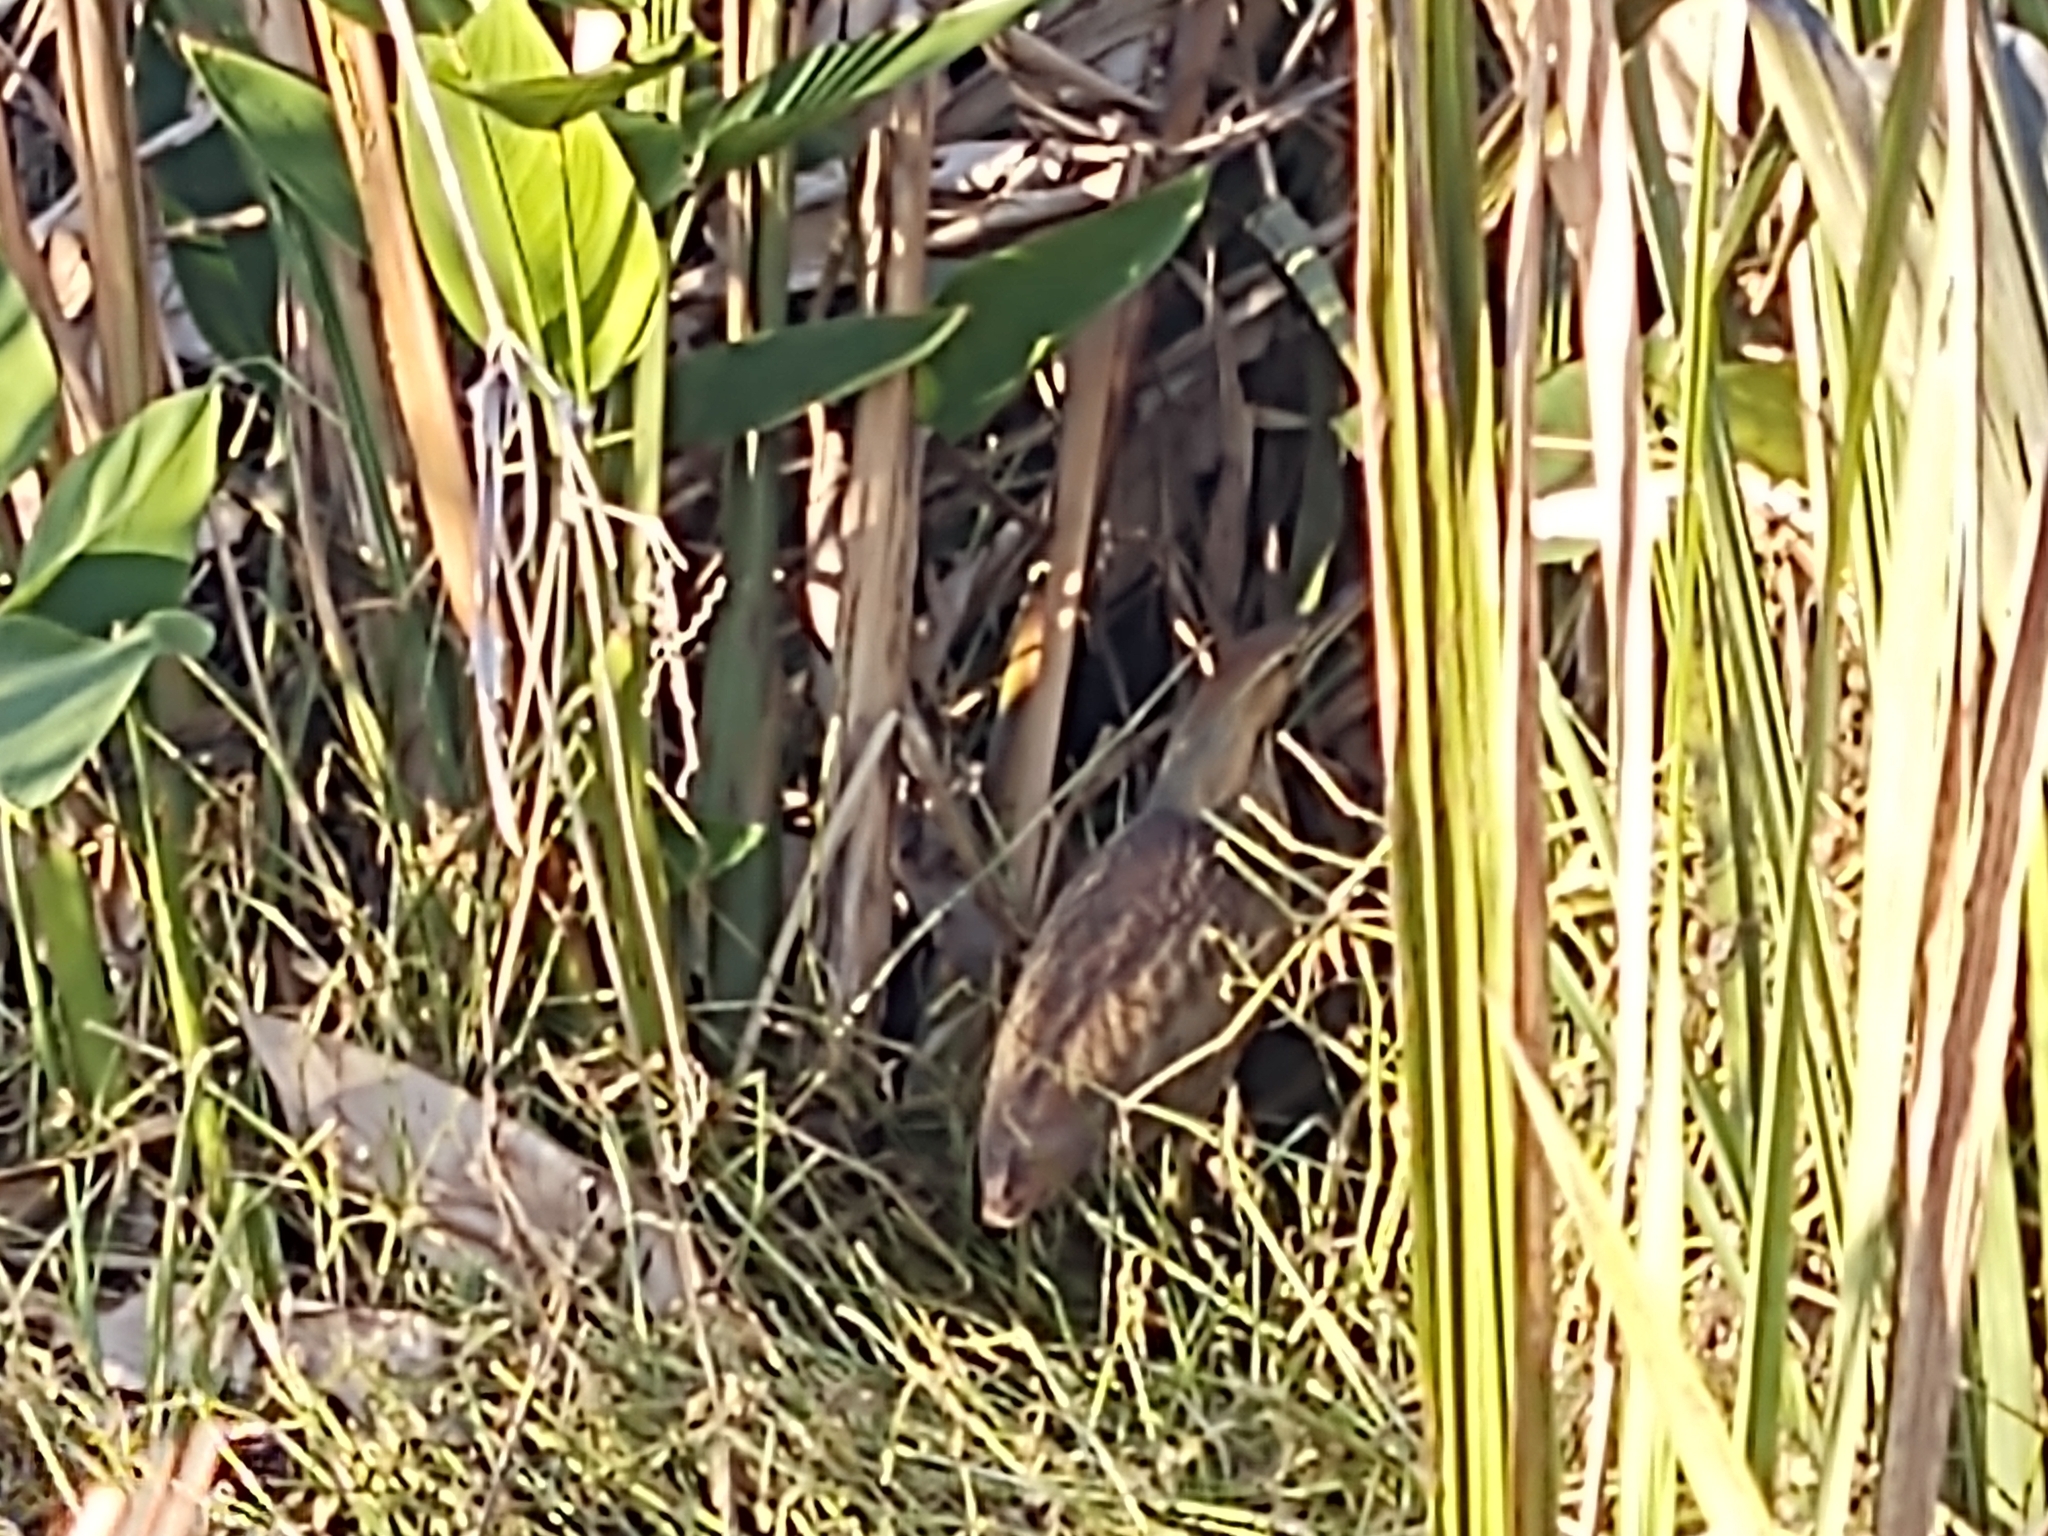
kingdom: Animalia
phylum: Chordata
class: Aves
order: Pelecaniformes
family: Ardeidae
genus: Botaurus
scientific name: Botaurus lentiginosus
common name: American bittern
